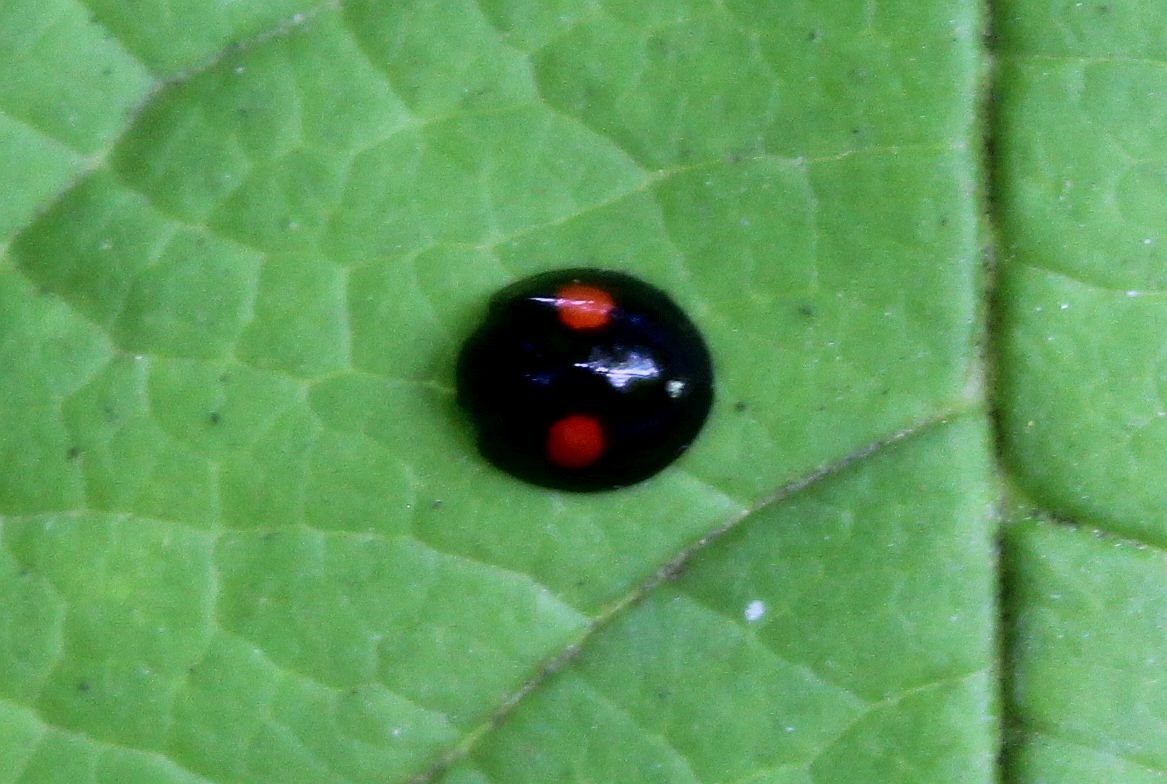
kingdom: Animalia
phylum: Arthropoda
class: Insecta
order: Coleoptera
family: Coccinellidae
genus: Chilocorus
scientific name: Chilocorus renipustulatus
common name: Kidney-spot ladybird
